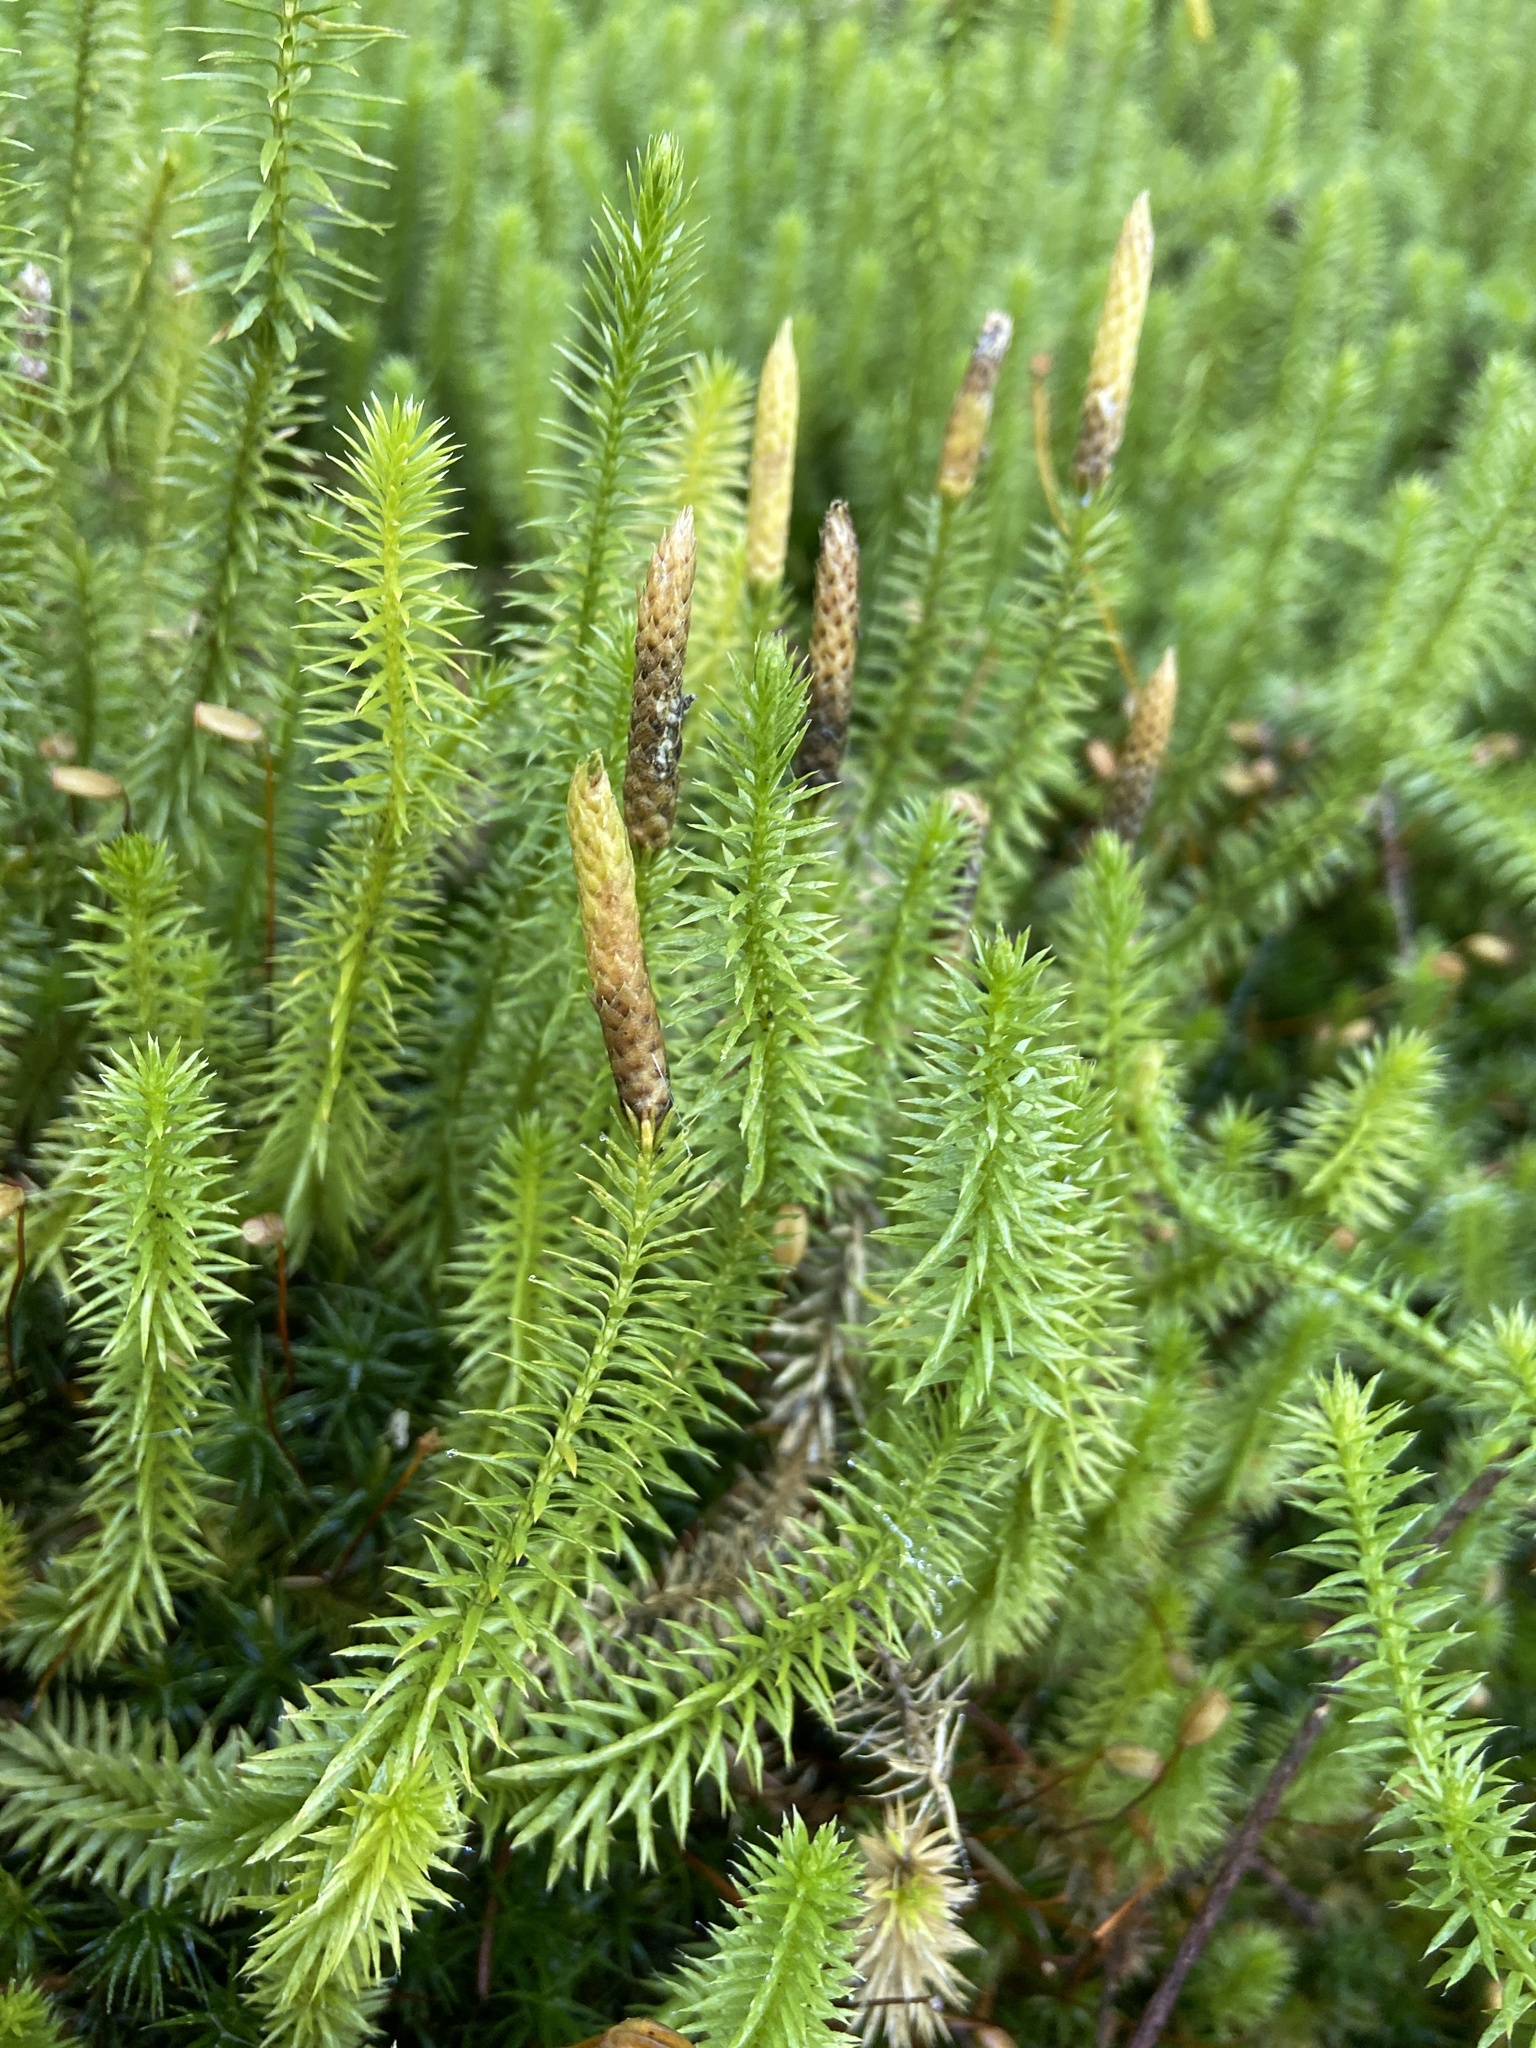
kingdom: Plantae
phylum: Tracheophyta
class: Lycopodiopsida
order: Lycopodiales
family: Lycopodiaceae
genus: Spinulum
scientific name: Spinulum annotinum
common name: Interrupted club-moss
